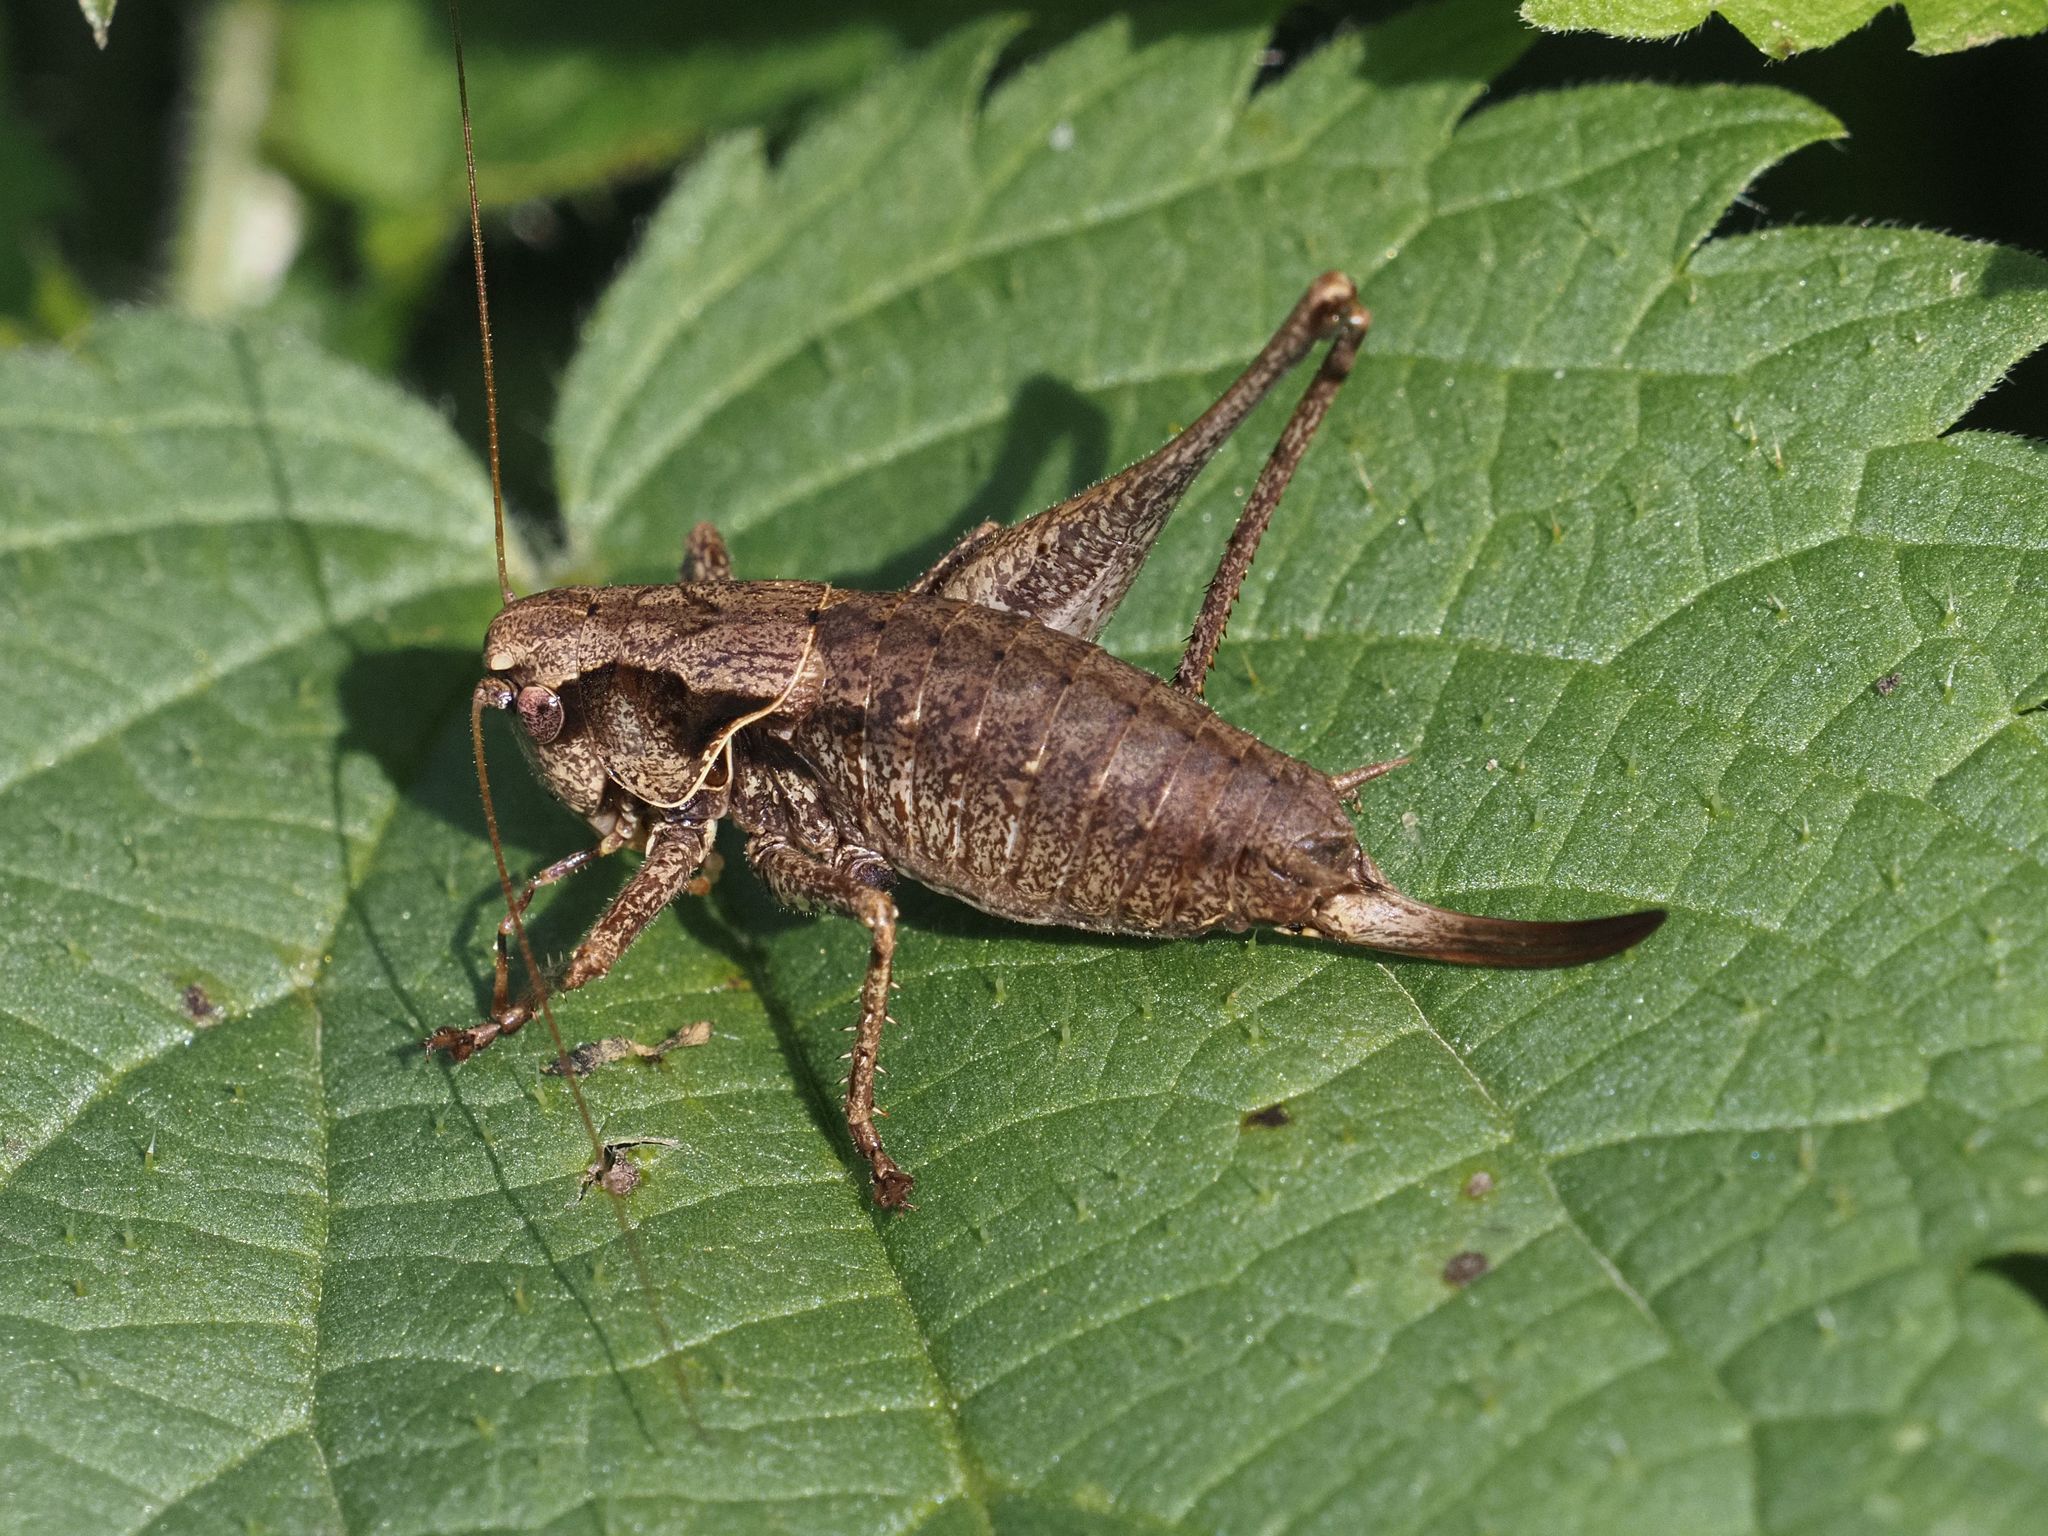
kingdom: Animalia
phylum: Arthropoda
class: Insecta
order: Orthoptera
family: Tettigoniidae
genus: Pholidoptera
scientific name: Pholidoptera griseoaptera
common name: Dark bush-cricket
